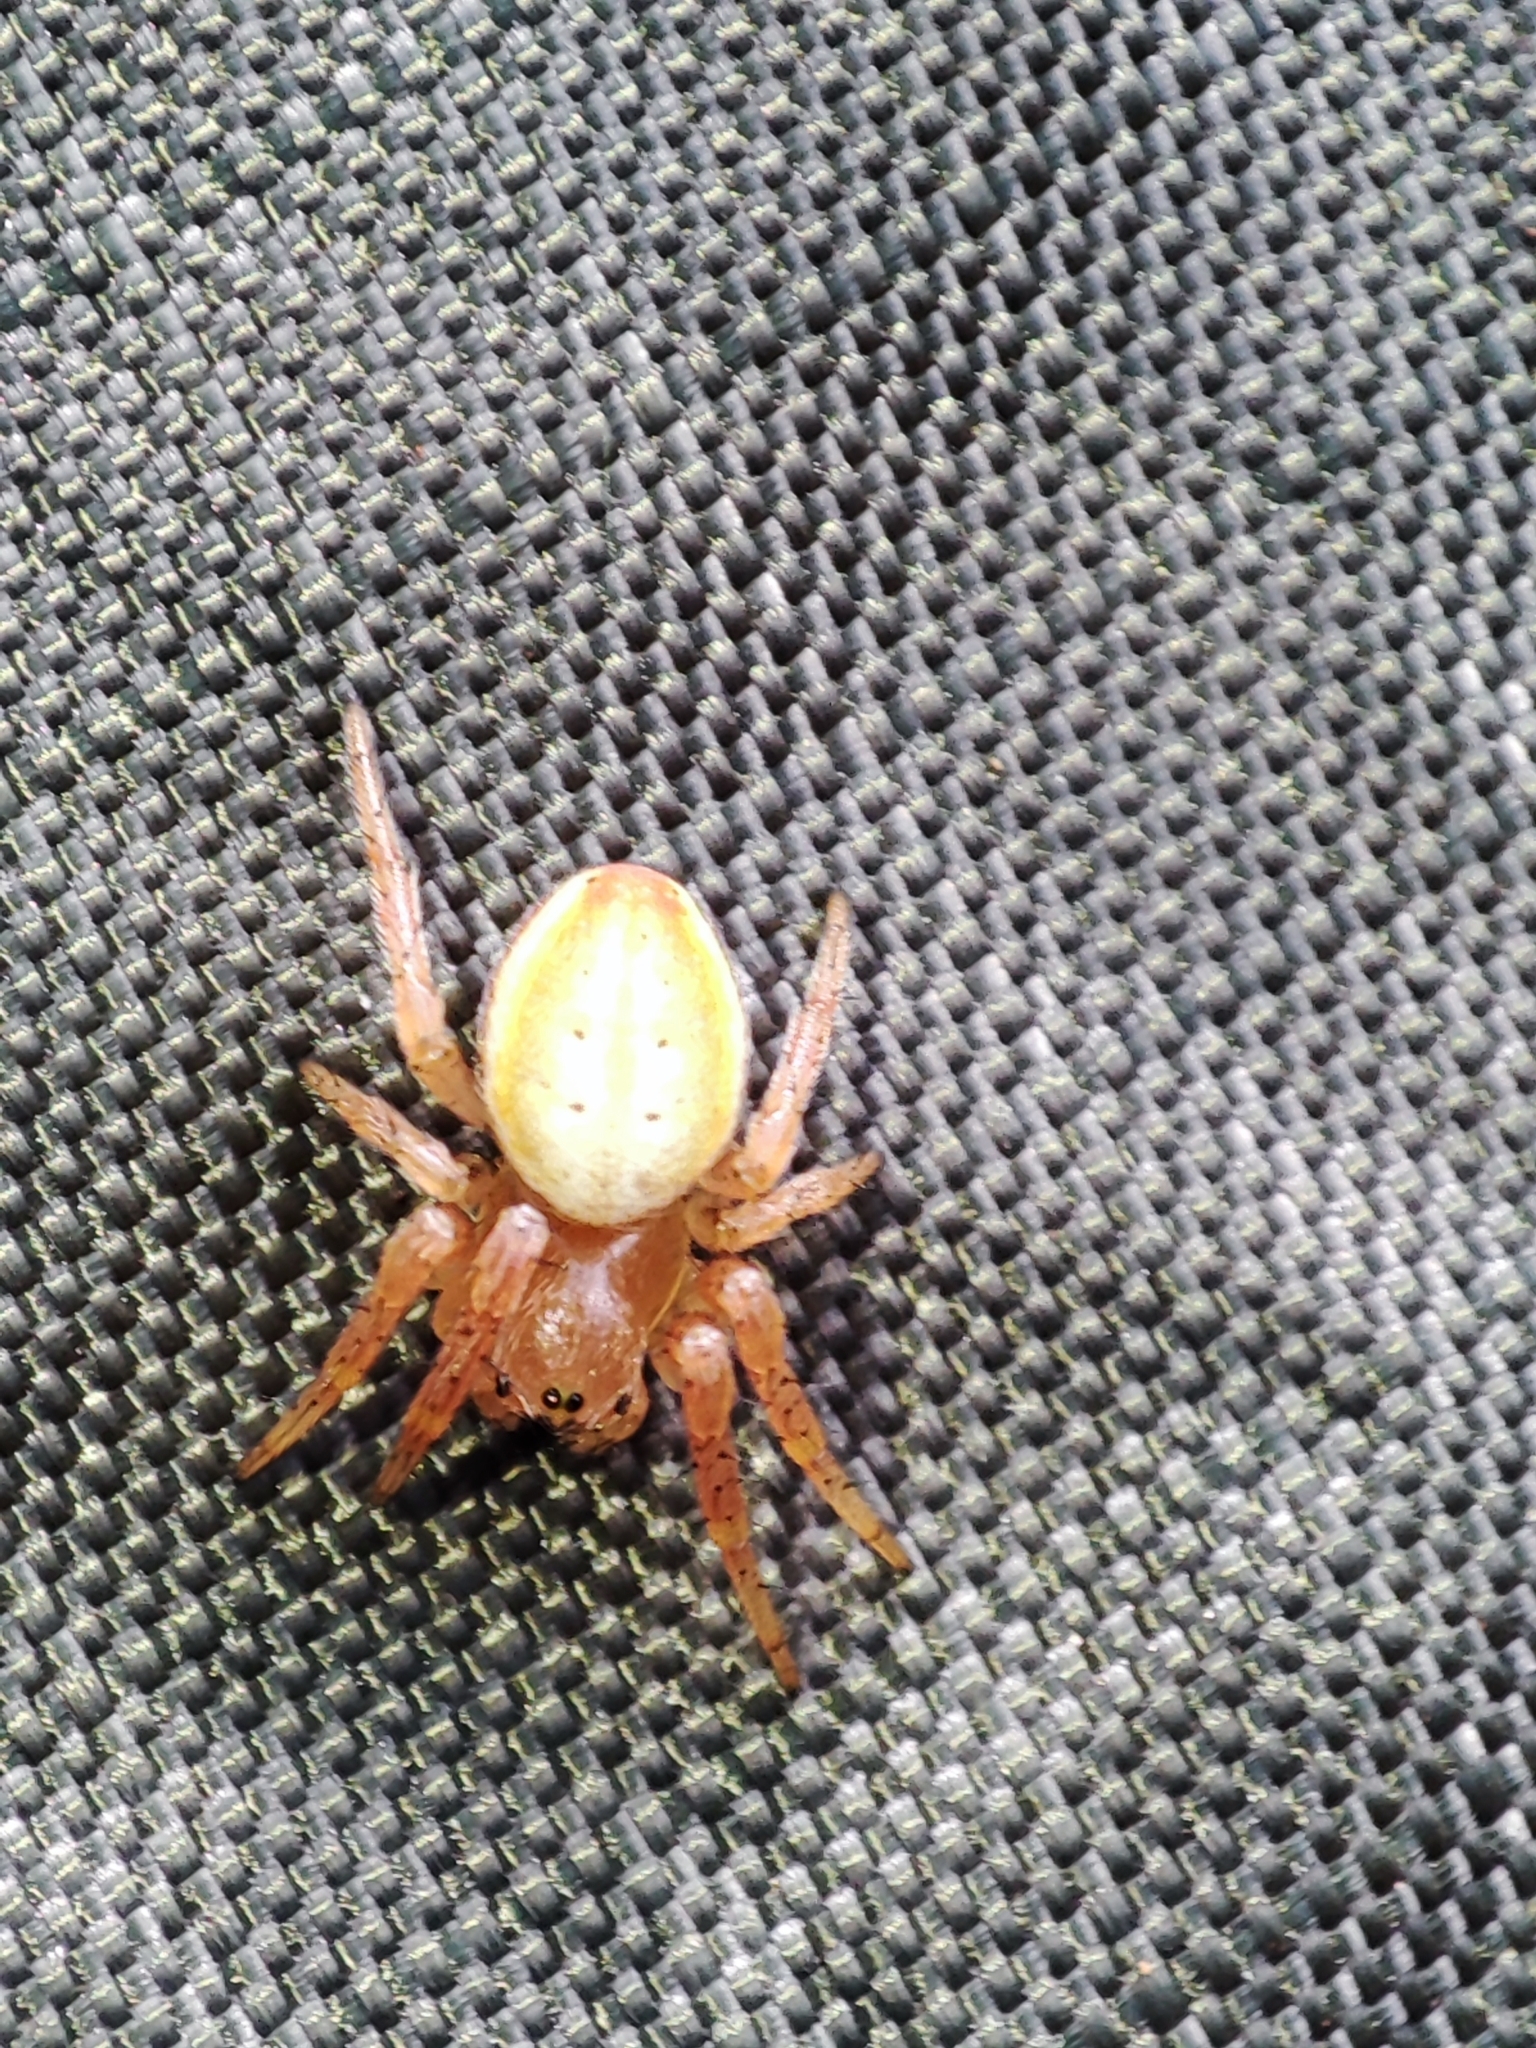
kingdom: Animalia
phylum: Arthropoda
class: Arachnida
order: Araneae
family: Araneidae
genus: Araniella
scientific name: Araniella displicata
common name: Sixspotted orb weaver
